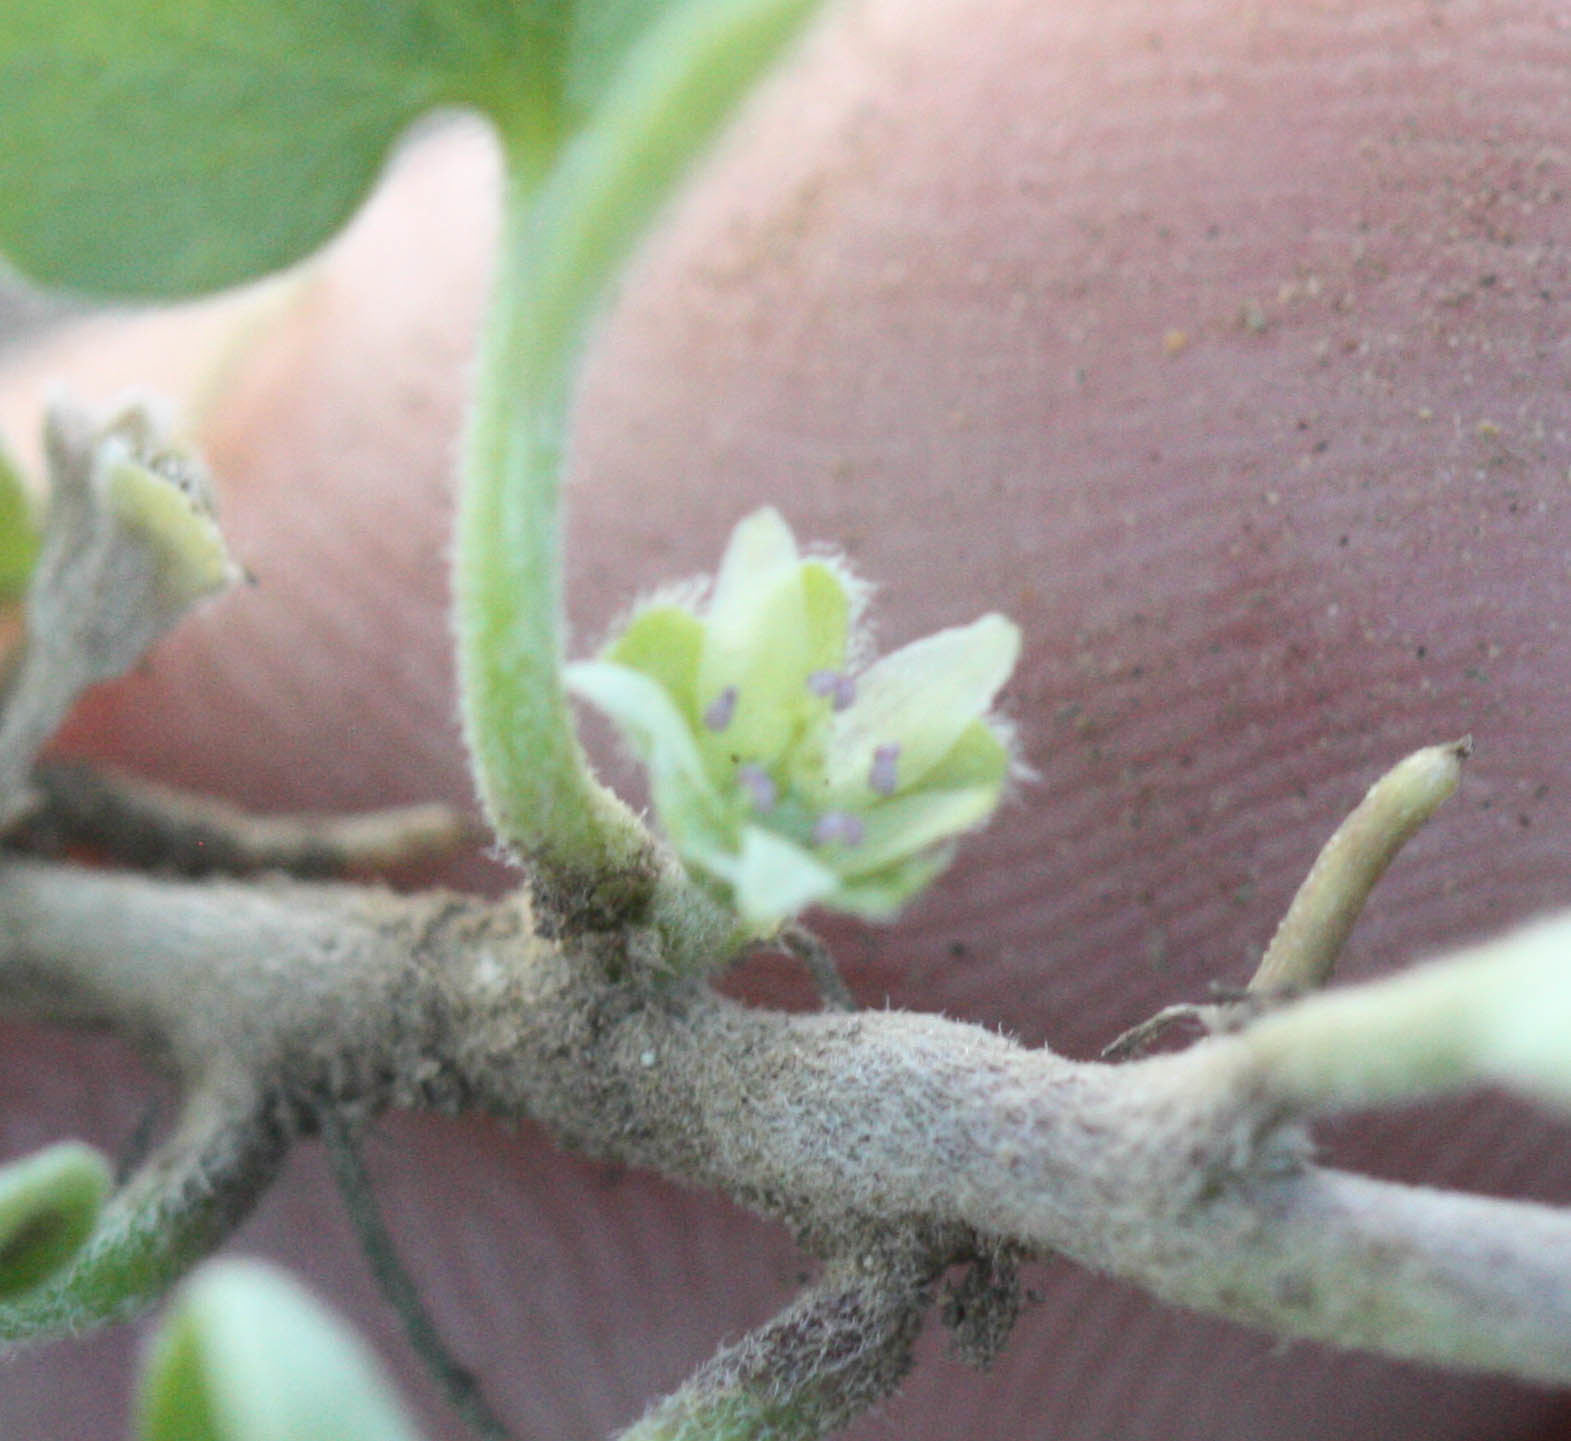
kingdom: Plantae
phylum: Tracheophyta
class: Magnoliopsida
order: Solanales
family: Convolvulaceae
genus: Dichondra
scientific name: Dichondra donelliana
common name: California ponysfoot
